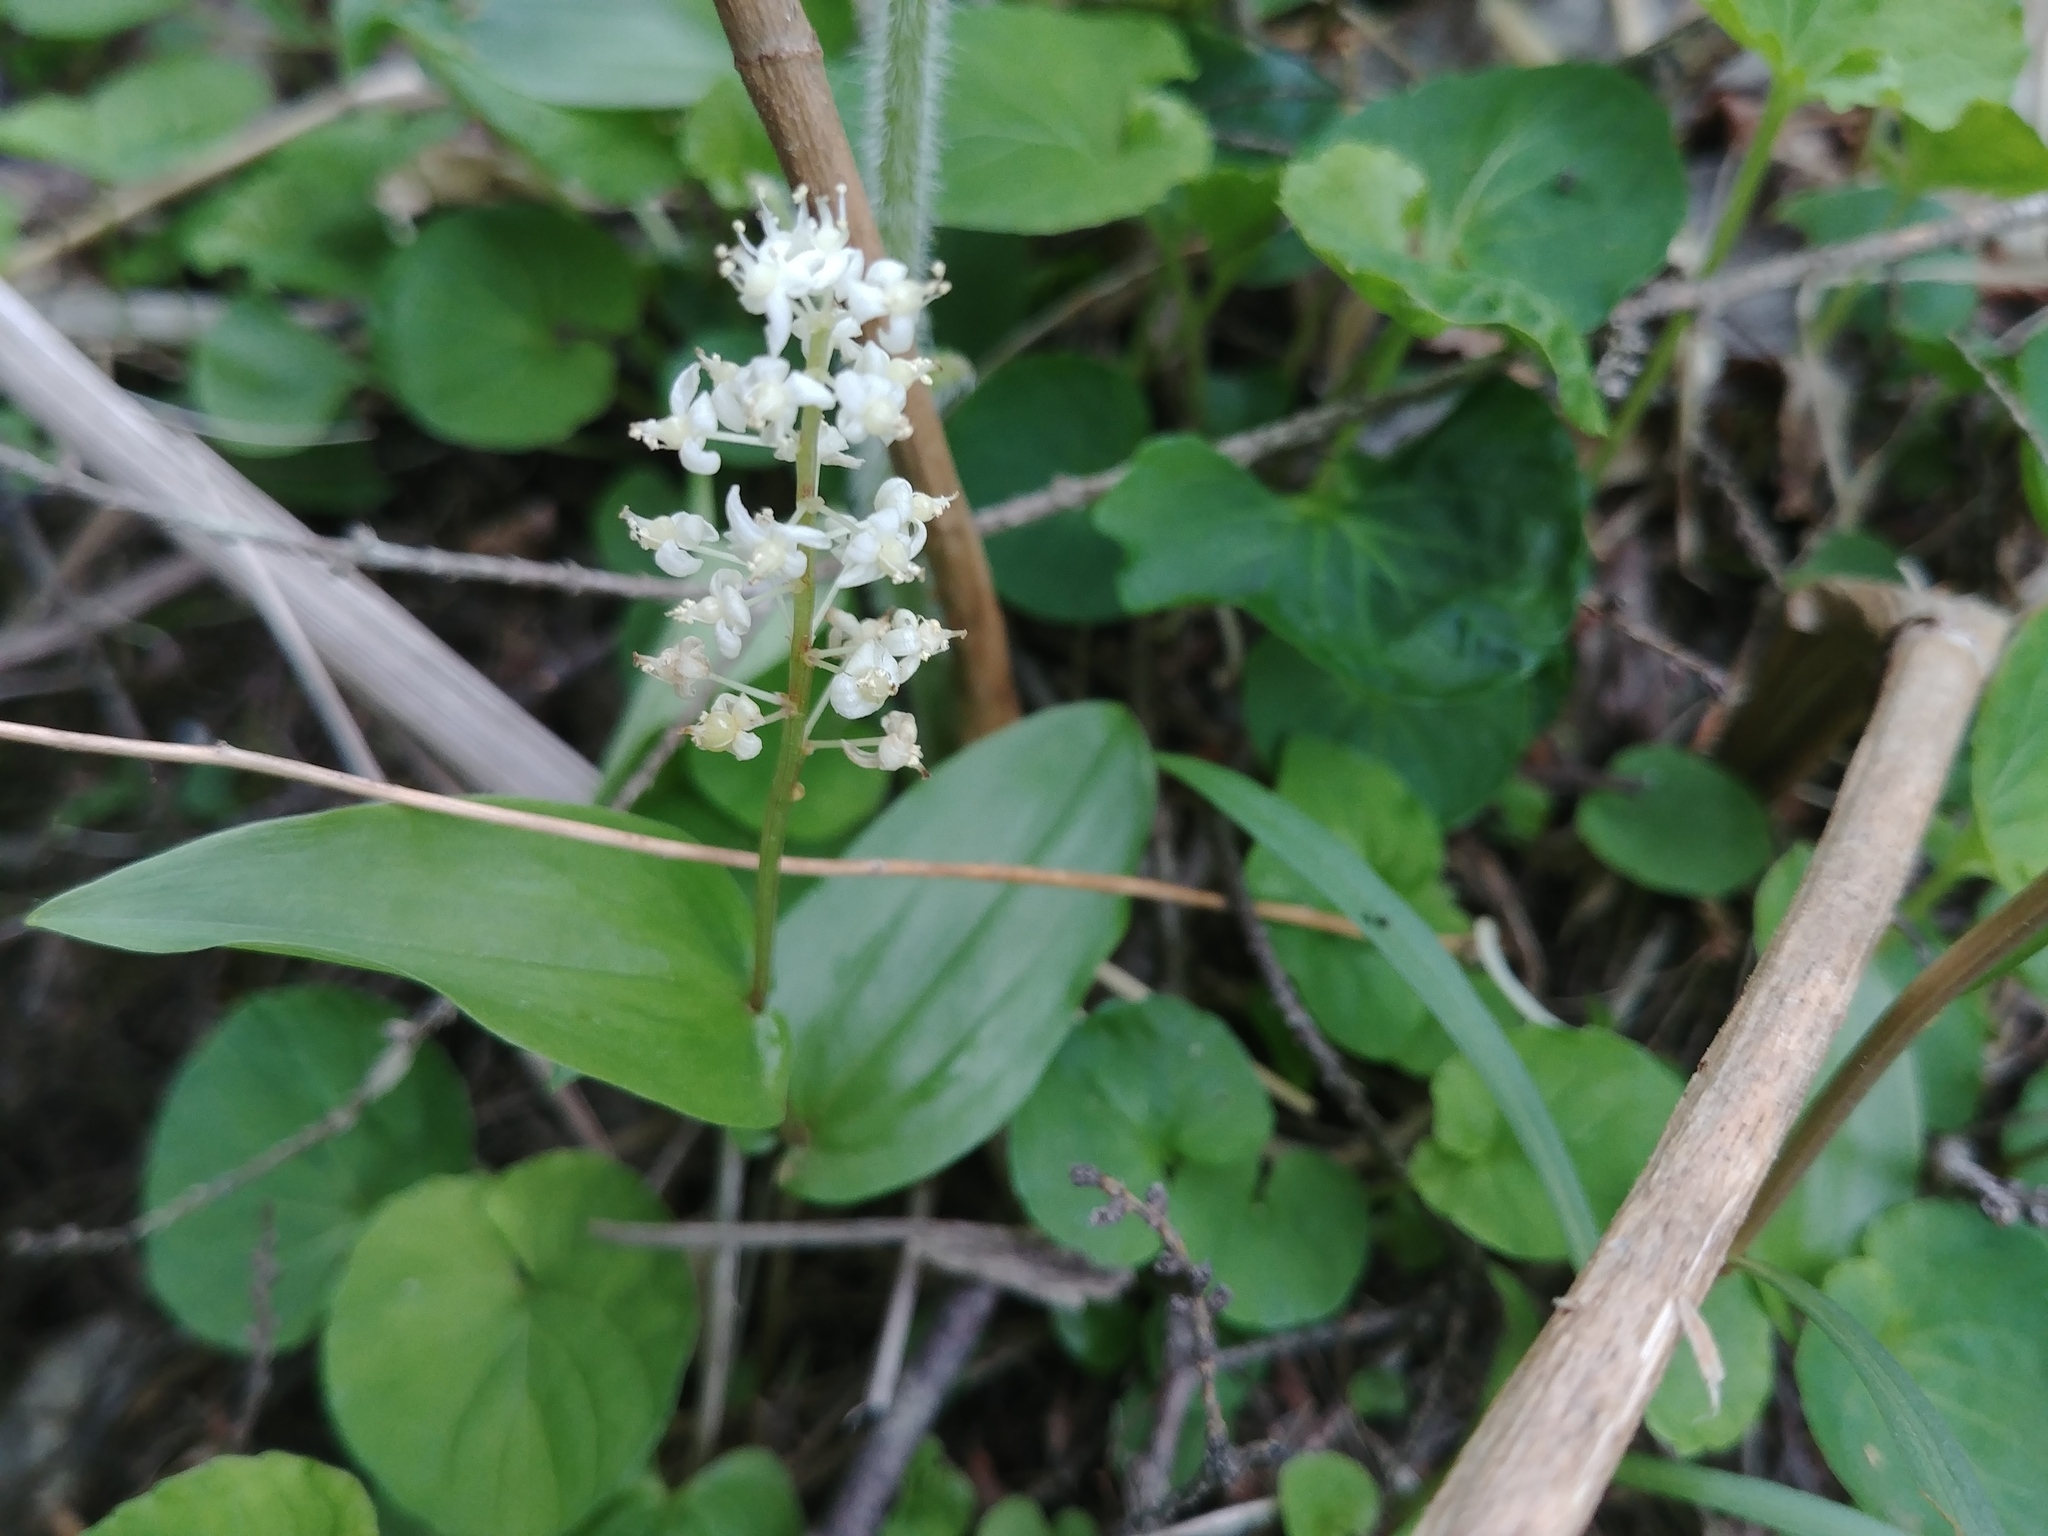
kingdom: Plantae
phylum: Tracheophyta
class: Liliopsida
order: Asparagales
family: Asparagaceae
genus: Maianthemum
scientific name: Maianthemum canadense
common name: False lily-of-the-valley
